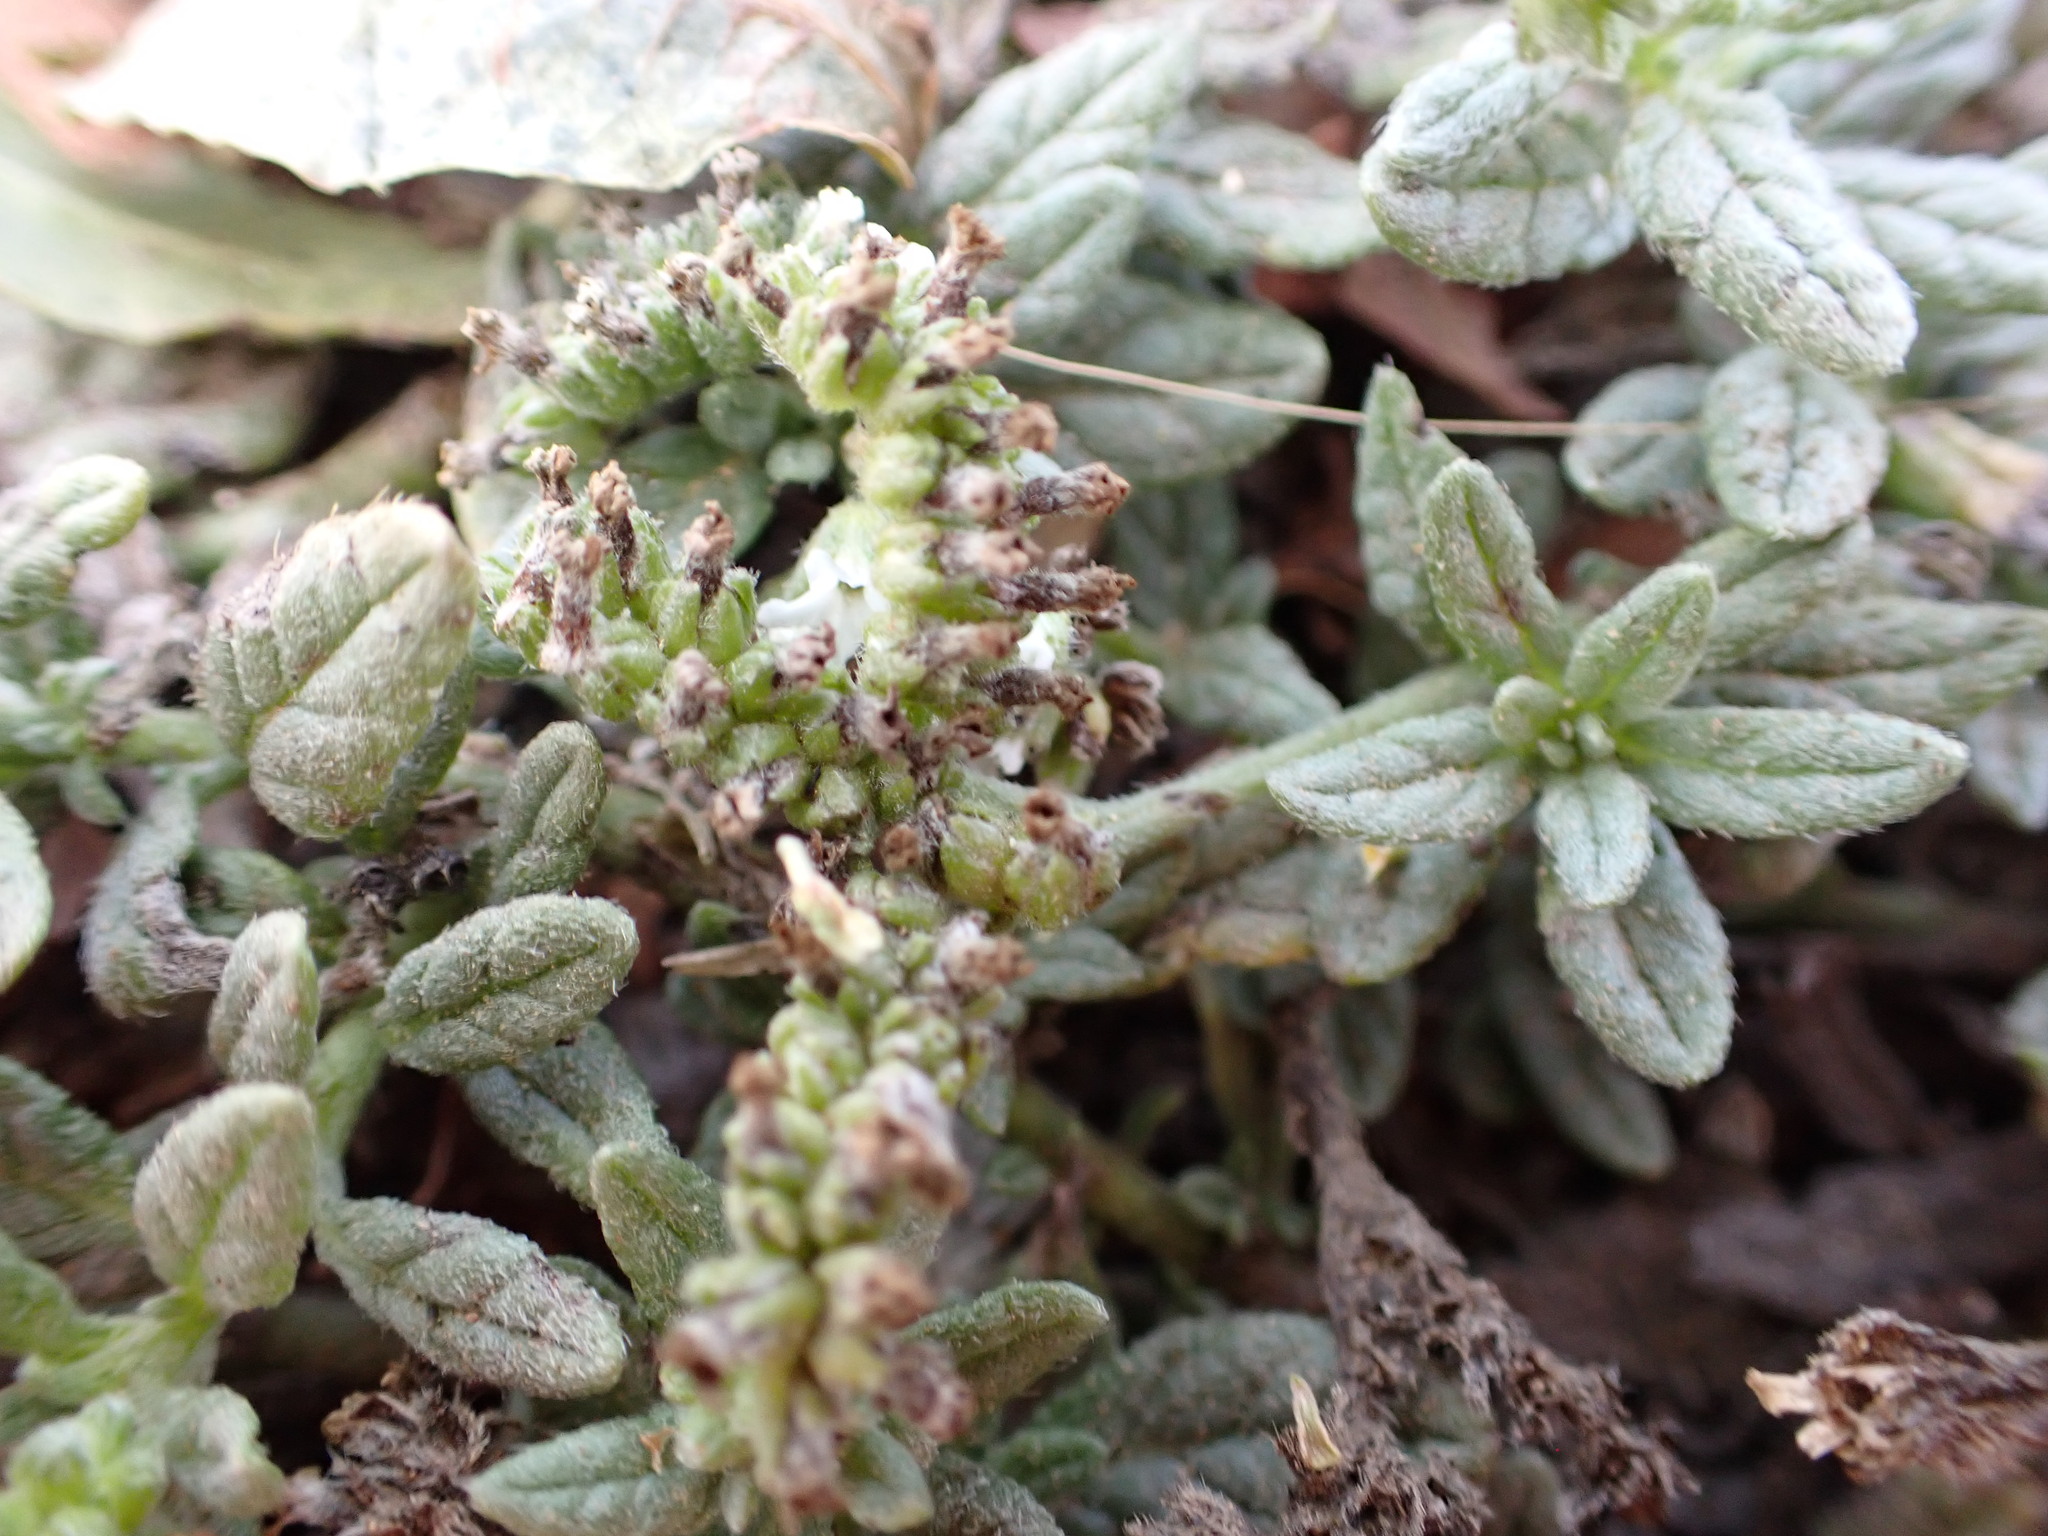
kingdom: Plantae
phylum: Tracheophyta
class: Magnoliopsida
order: Boraginales
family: Heliotropiaceae
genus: Heliotropium
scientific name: Heliotropium ramosissimum
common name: Wavy heliotrope
